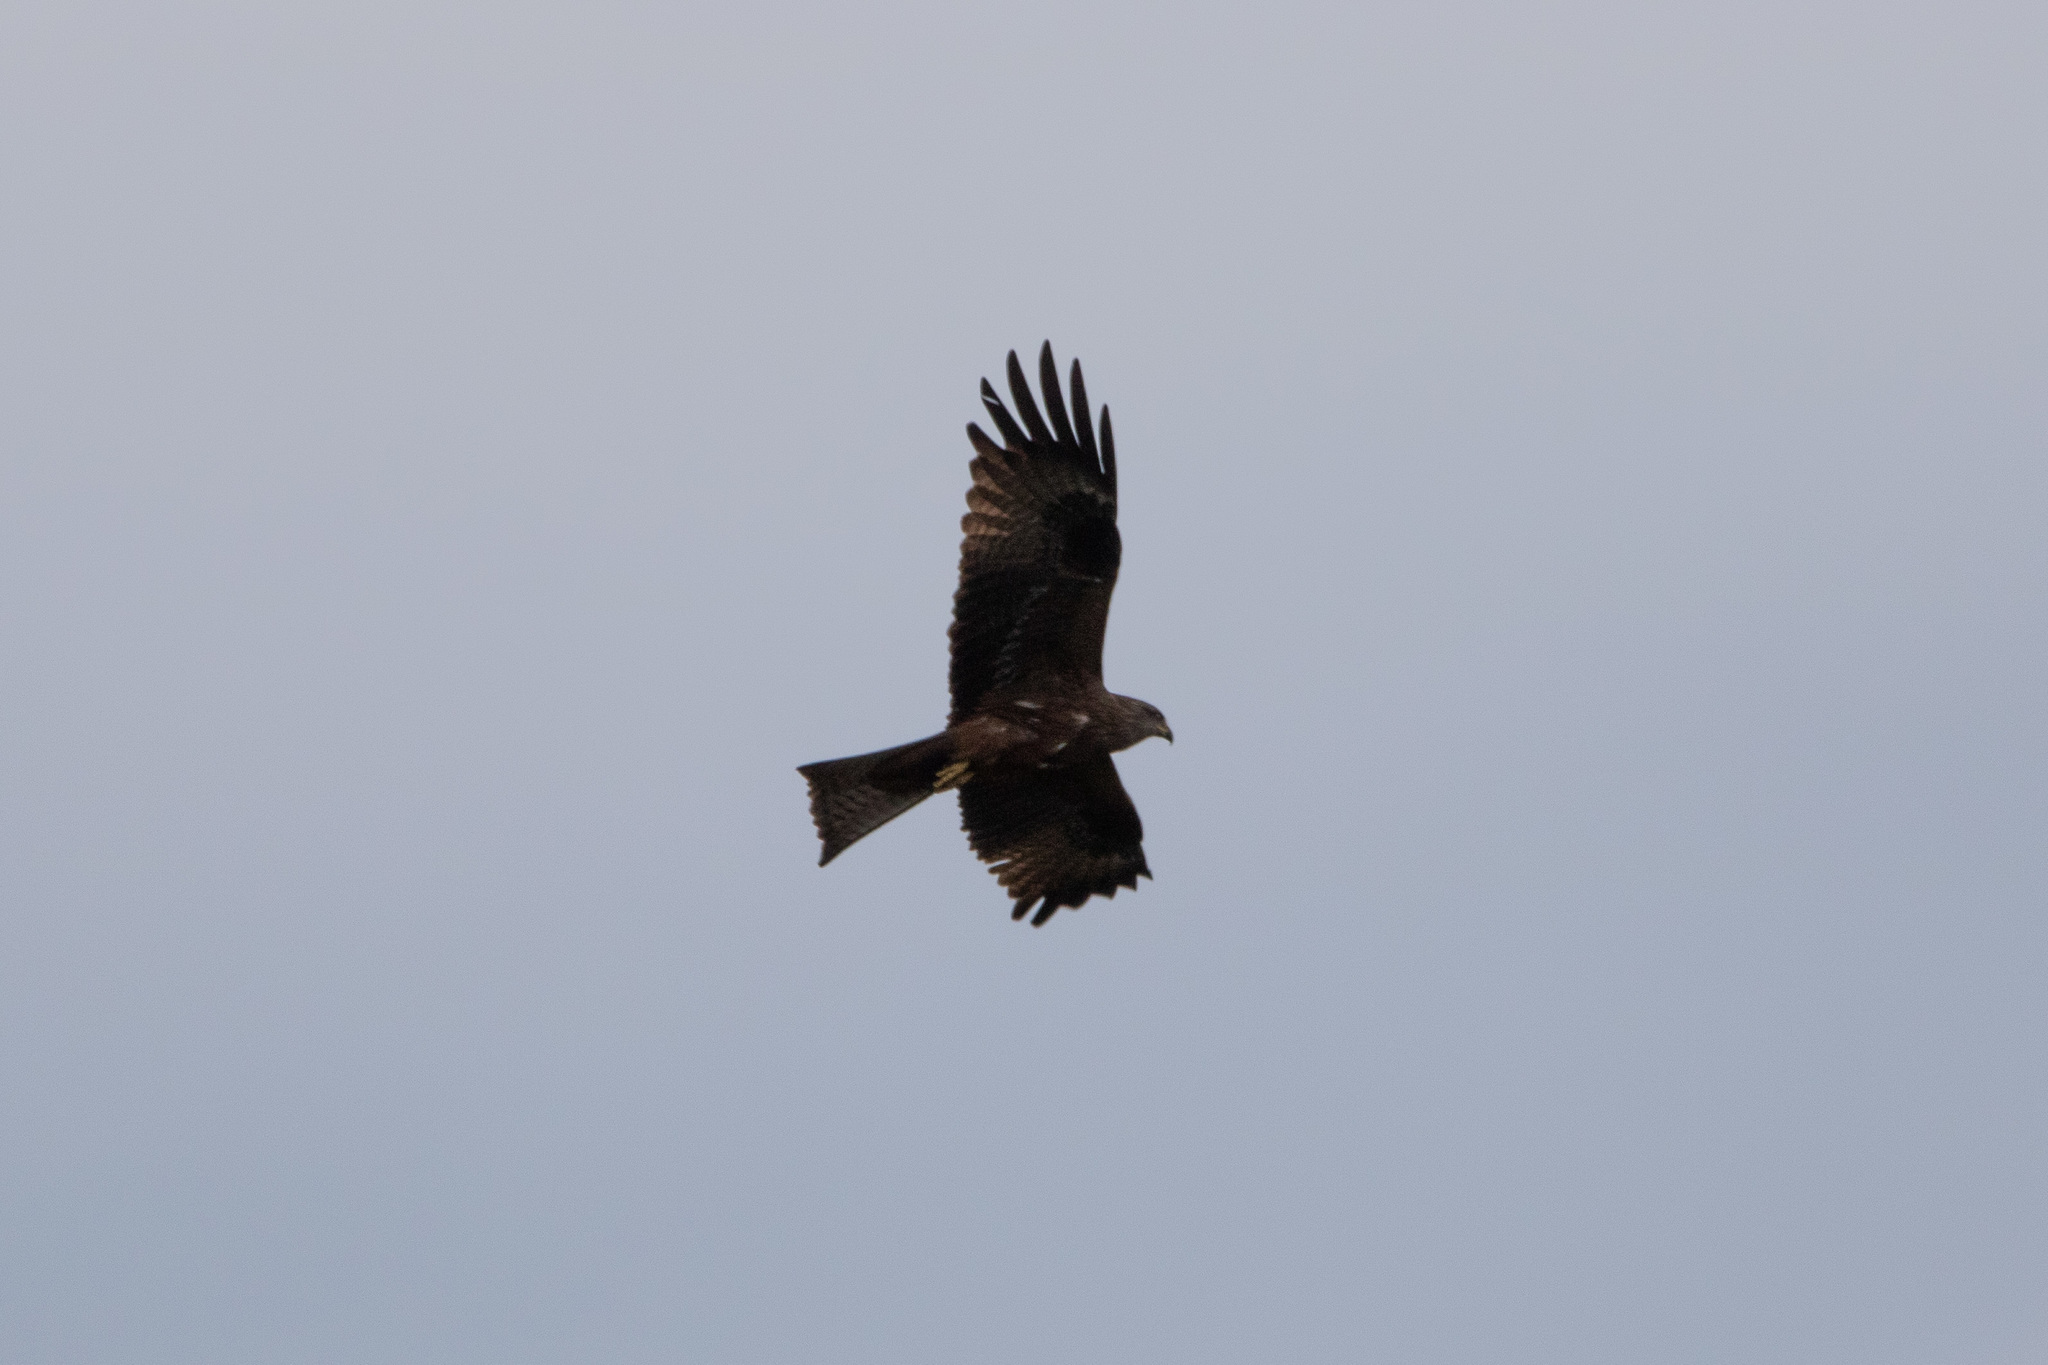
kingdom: Animalia
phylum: Chordata
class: Aves
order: Accipitriformes
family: Accipitridae
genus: Milvus
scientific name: Milvus migrans
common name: Black kite
